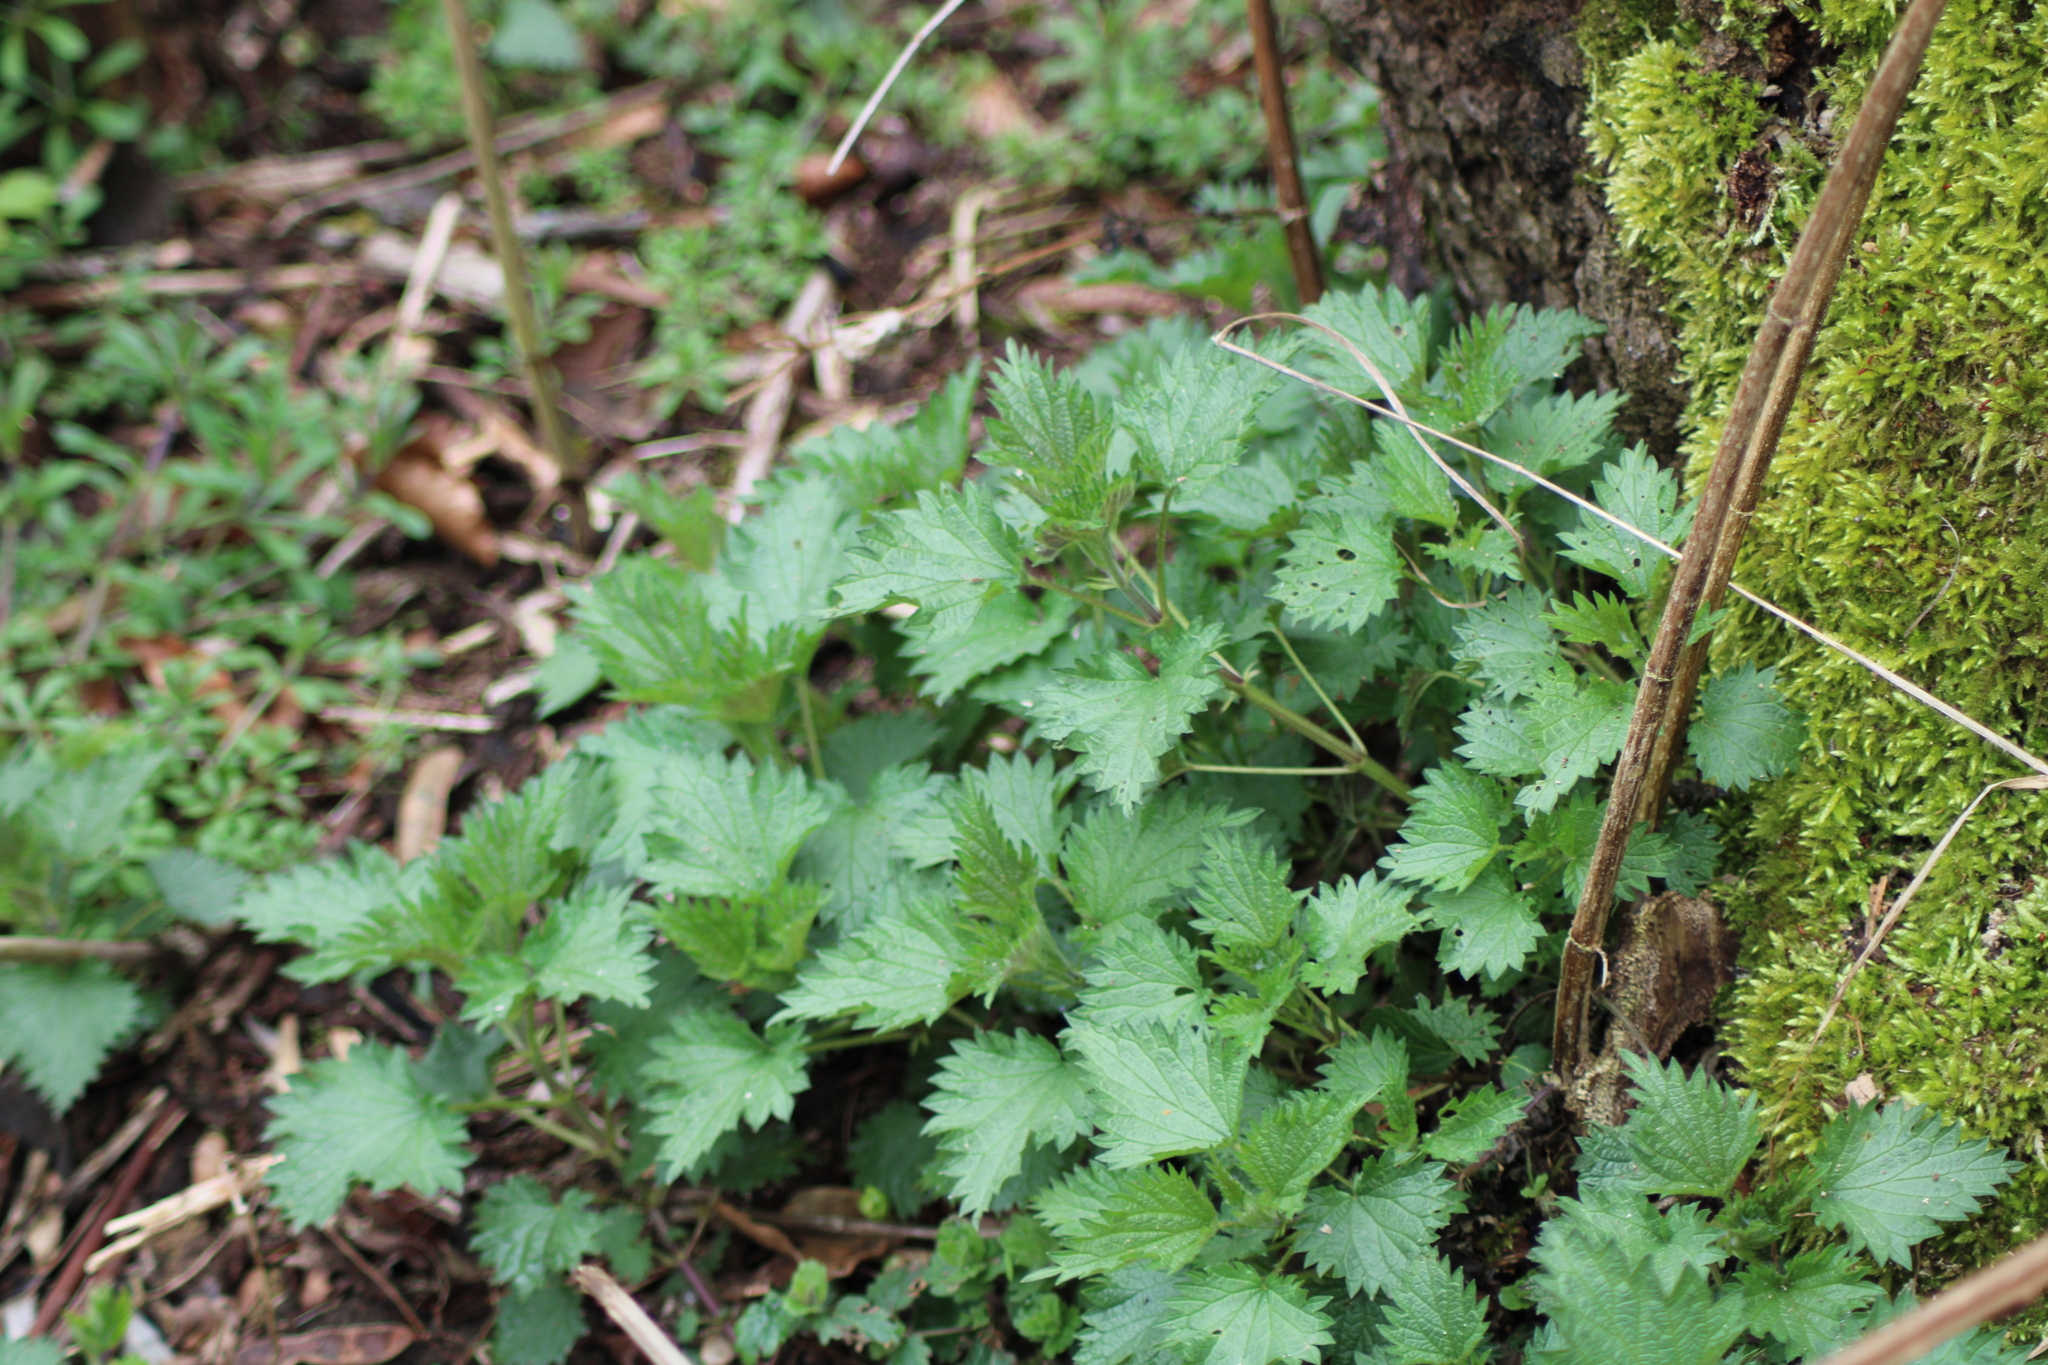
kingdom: Plantae
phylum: Tracheophyta
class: Magnoliopsida
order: Rosales
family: Urticaceae
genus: Urtica
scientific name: Urtica dioica
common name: Common nettle
